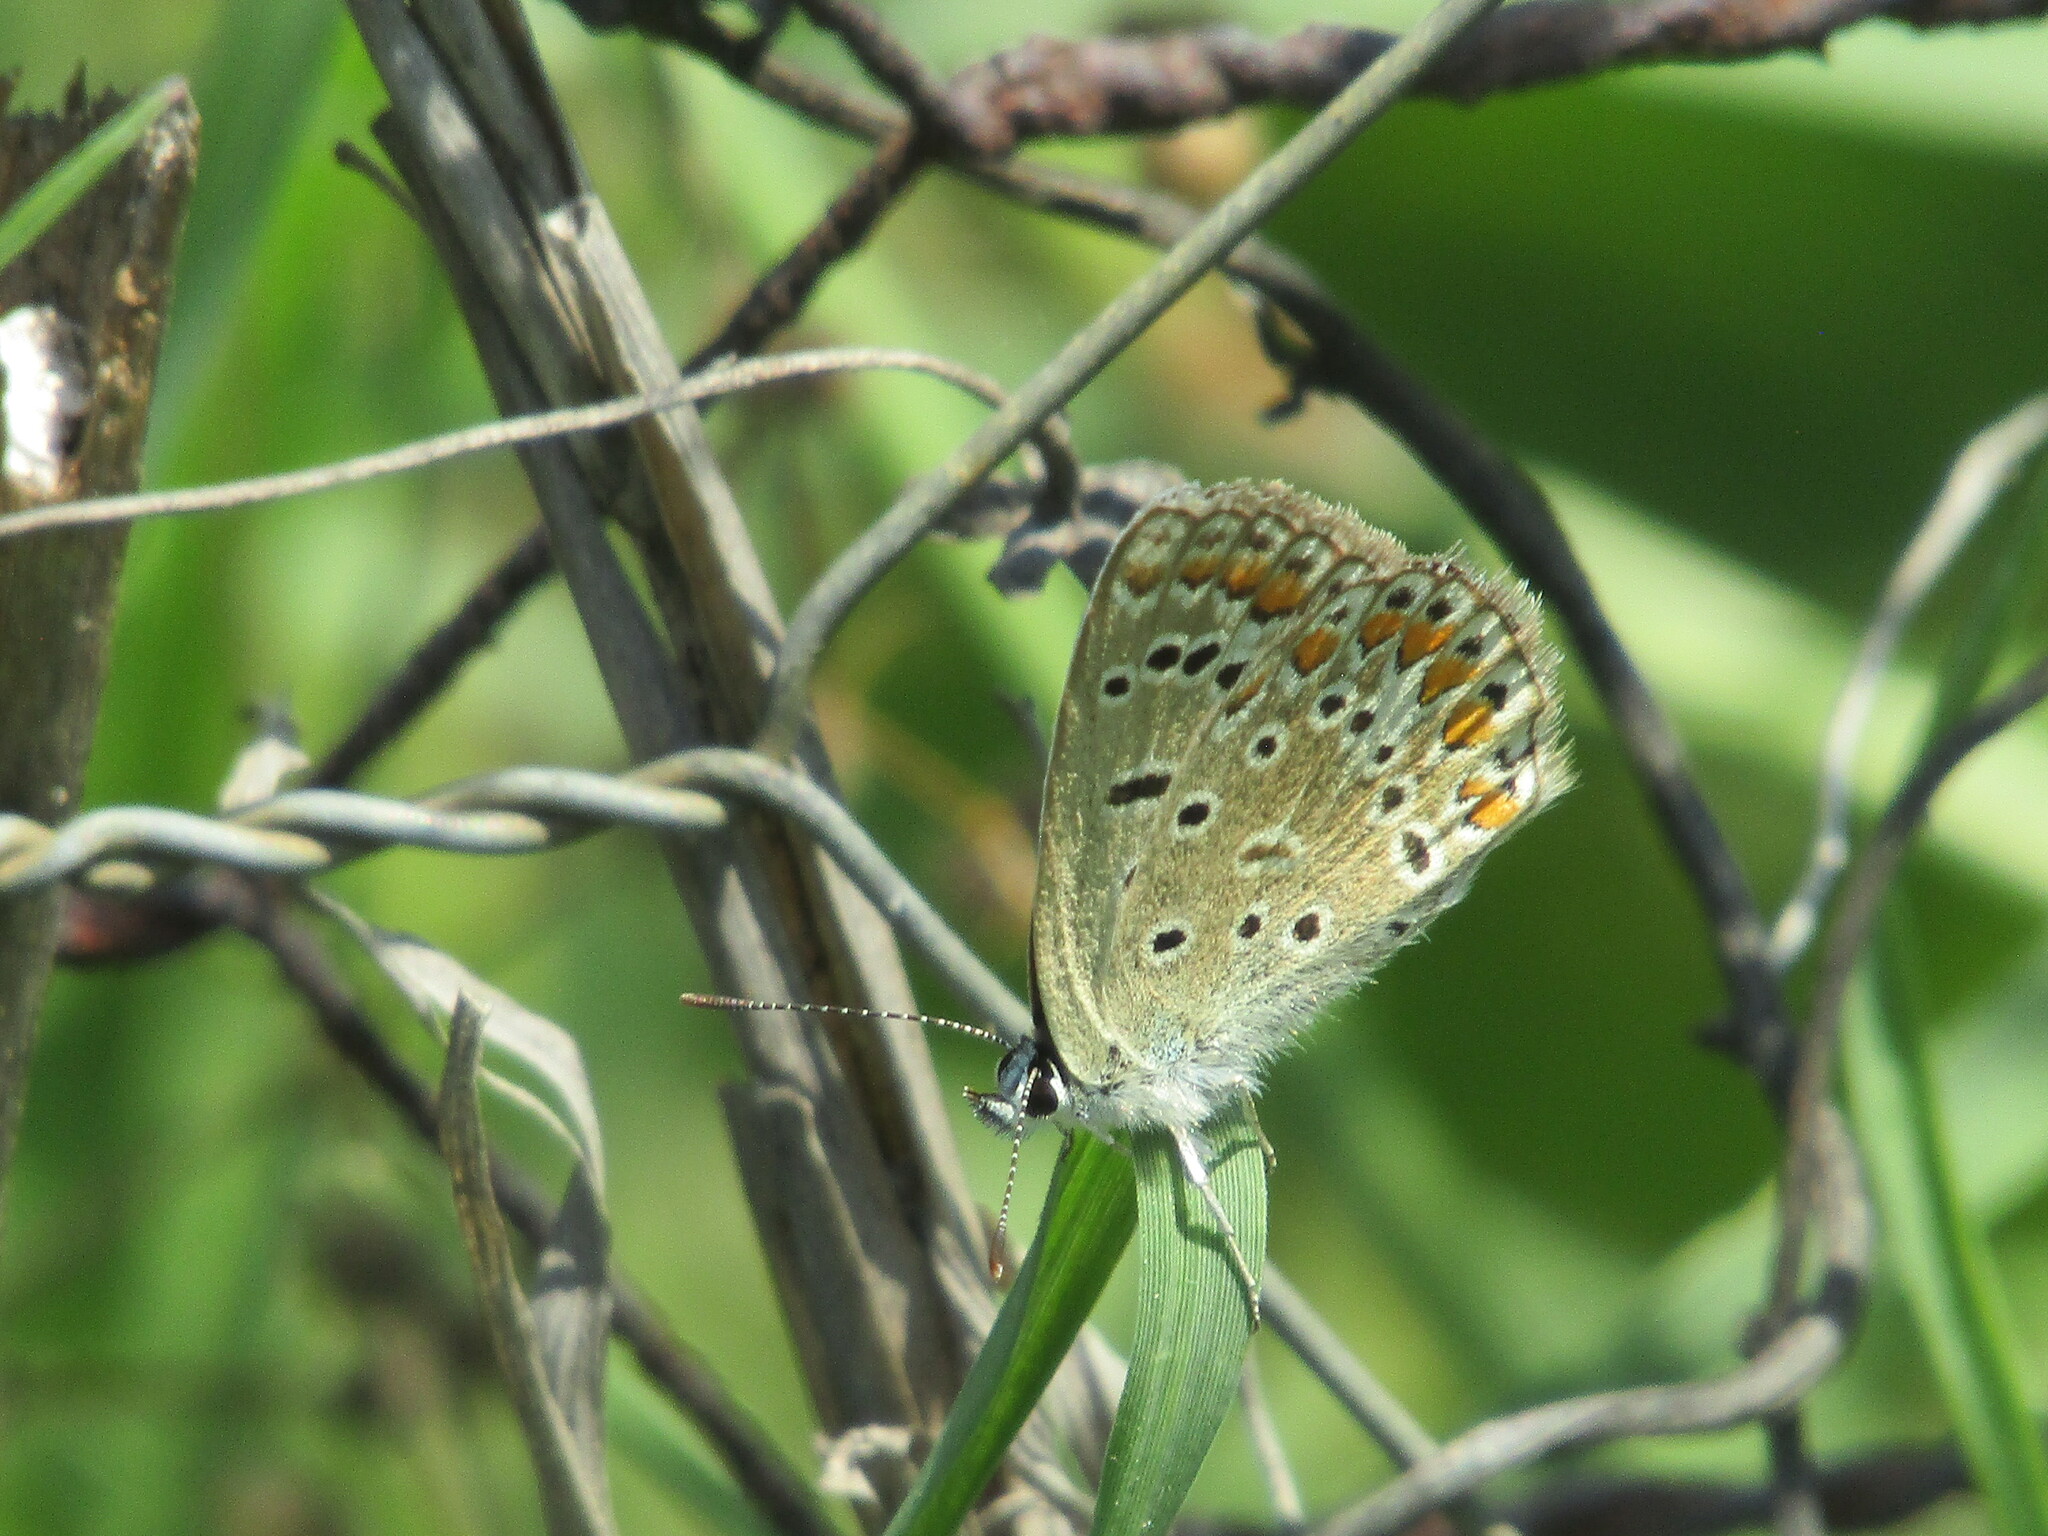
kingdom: Animalia
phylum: Arthropoda
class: Insecta
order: Lepidoptera
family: Lycaenidae
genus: Polyommatus
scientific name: Polyommatus icarus
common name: Common blue
